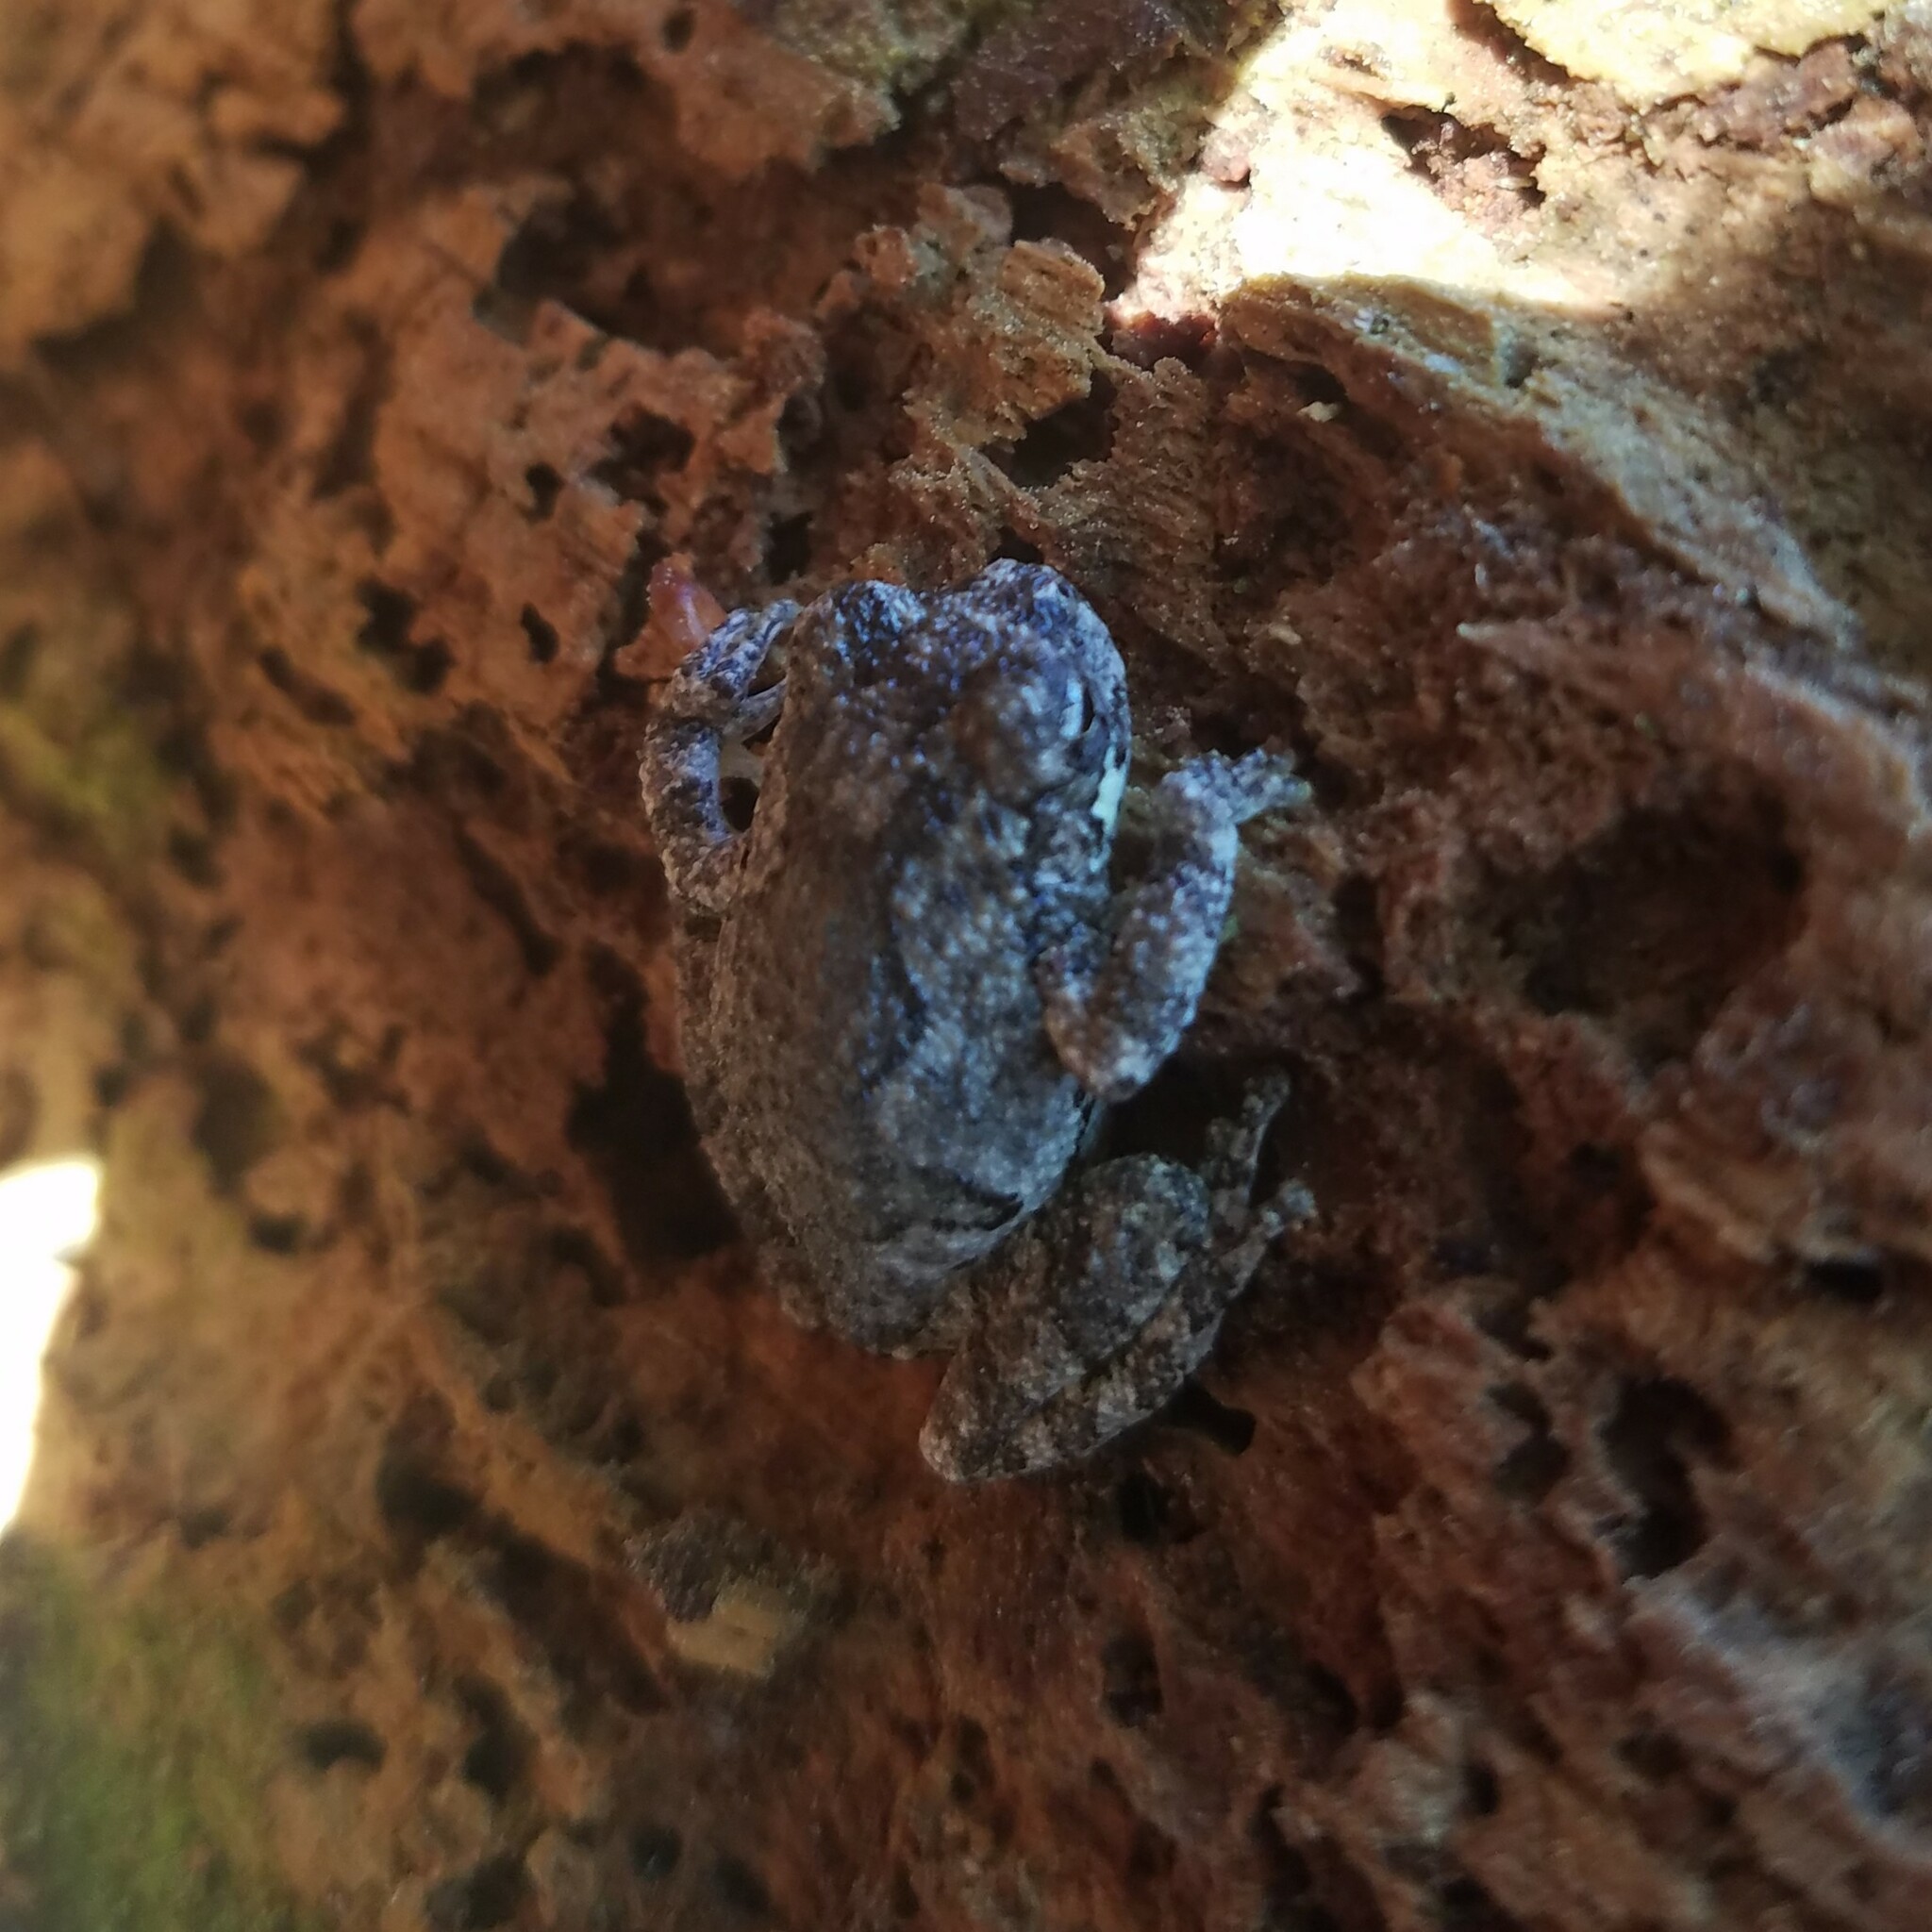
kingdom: Animalia
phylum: Chordata
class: Amphibia
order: Anura
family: Hylidae
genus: Dryophytes
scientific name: Dryophytes chrysoscelis
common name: Cope's gray treefrog
